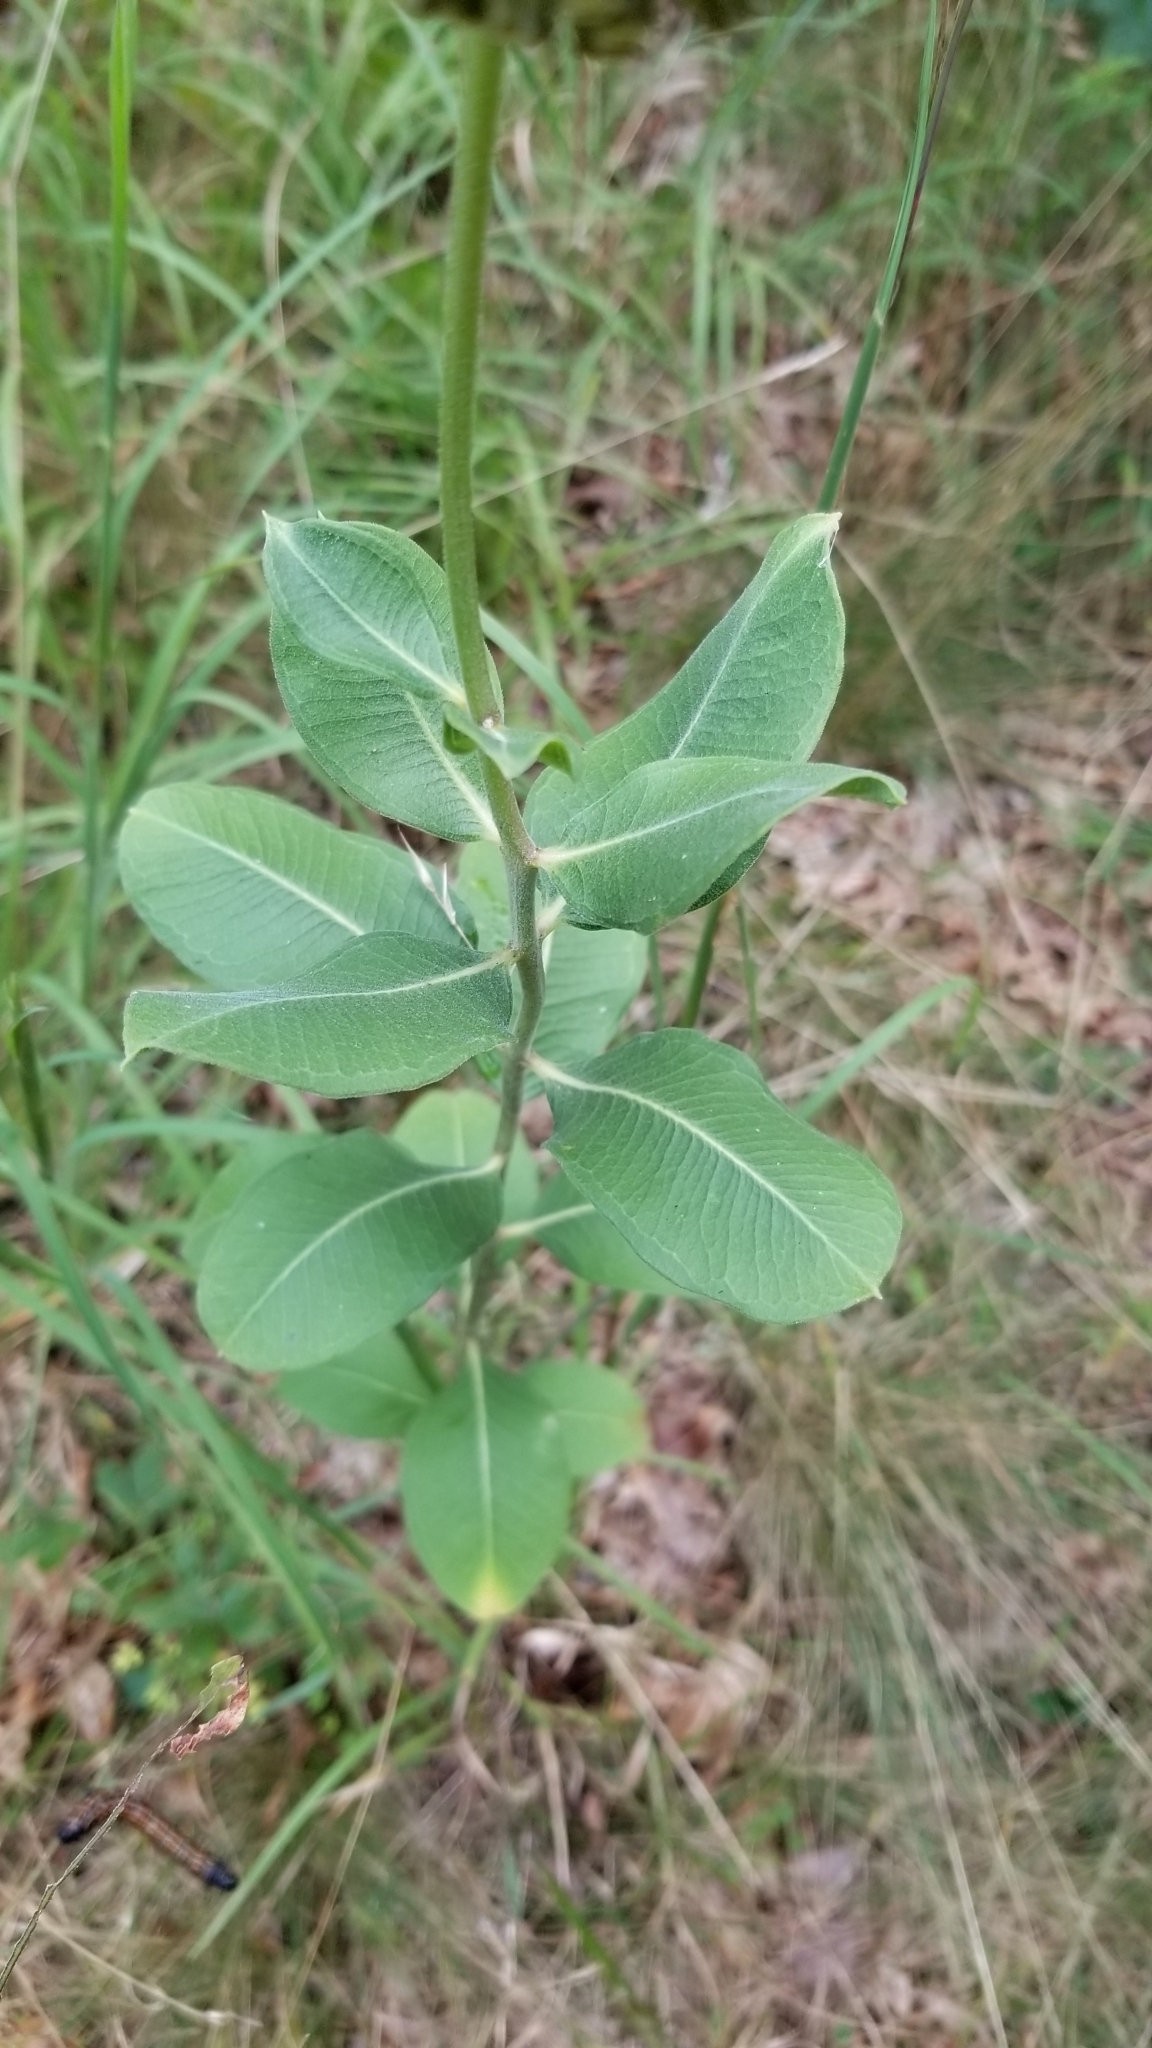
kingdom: Plantae
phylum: Tracheophyta
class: Magnoliopsida
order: Gentianales
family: Apocynaceae
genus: Asclepias
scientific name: Asclepias viridiflora
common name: Green comet milkweed
